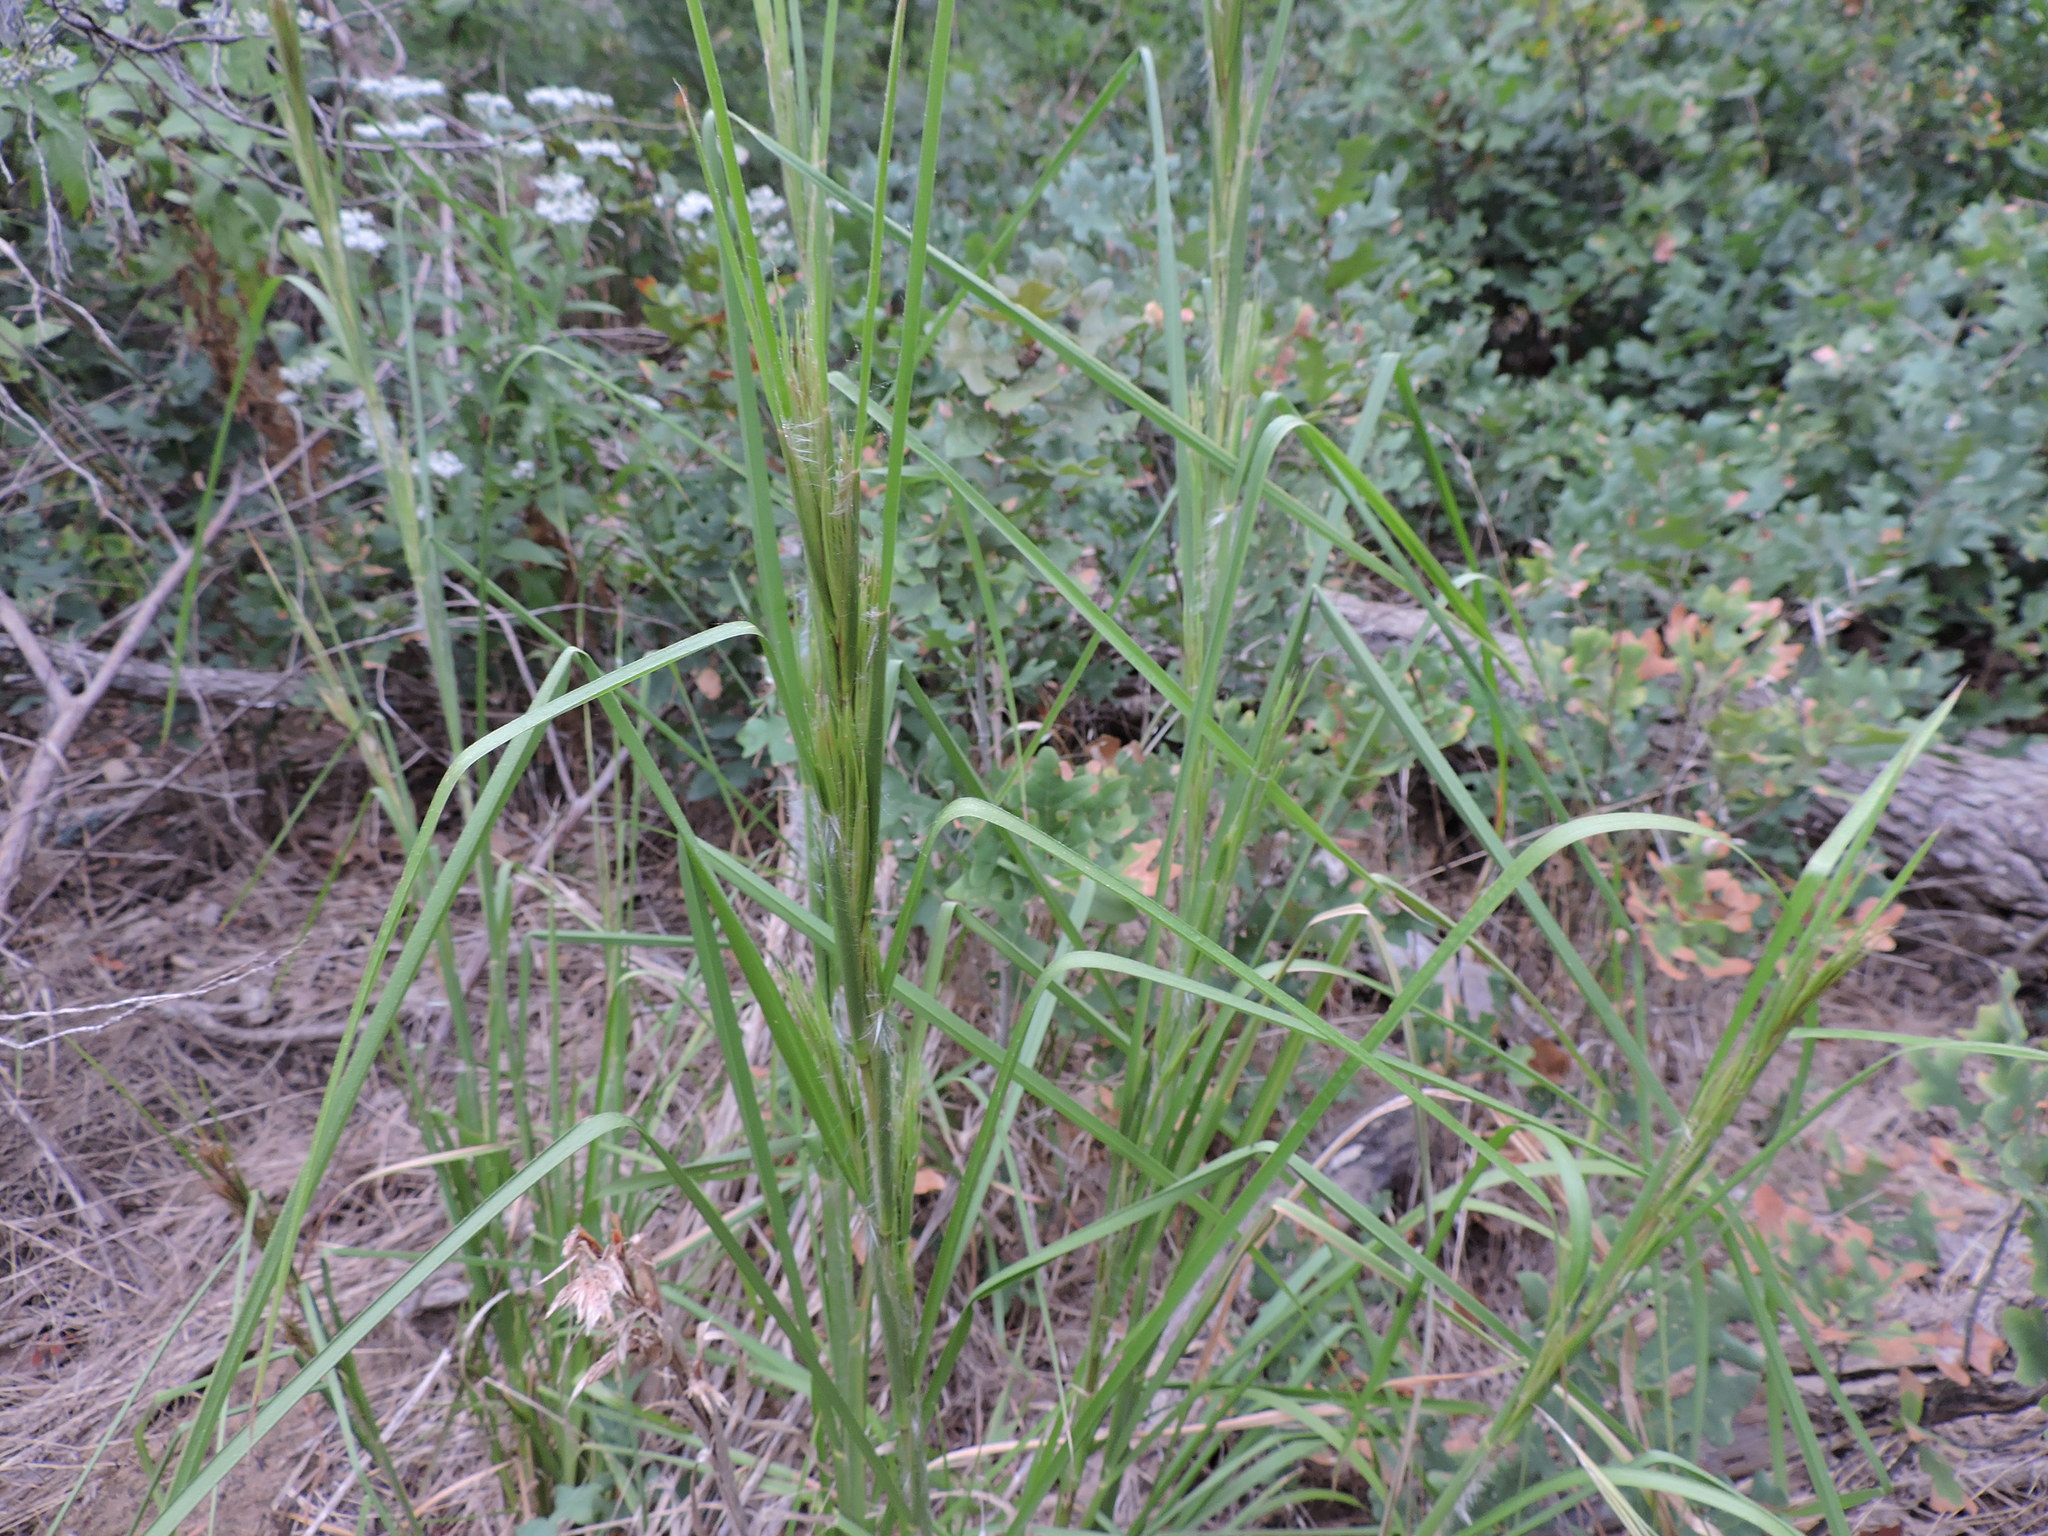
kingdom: Plantae
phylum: Tracheophyta
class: Liliopsida
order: Poales
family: Poaceae
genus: Andropogon
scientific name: Andropogon tenuispatheus
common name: Bushy bluestem
